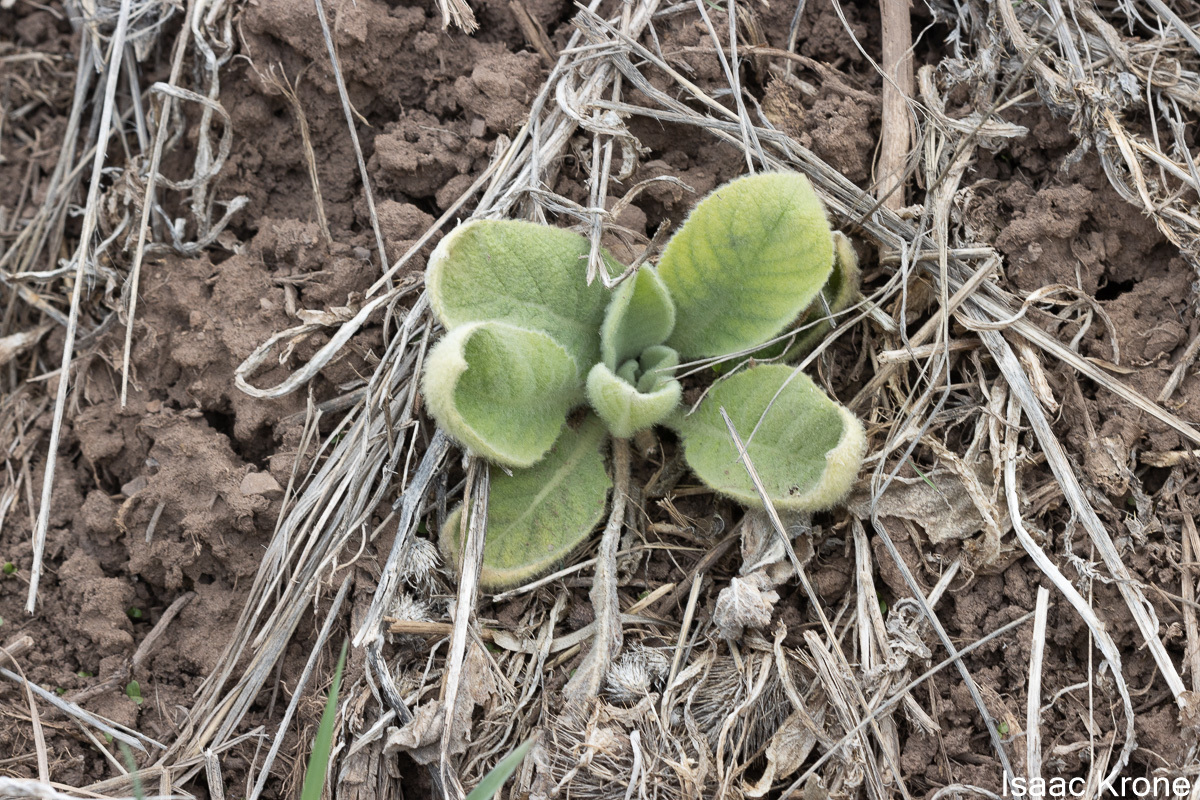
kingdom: Plantae
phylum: Tracheophyta
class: Magnoliopsida
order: Lamiales
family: Scrophulariaceae
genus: Verbascum
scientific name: Verbascum thapsus
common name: Common mullein
